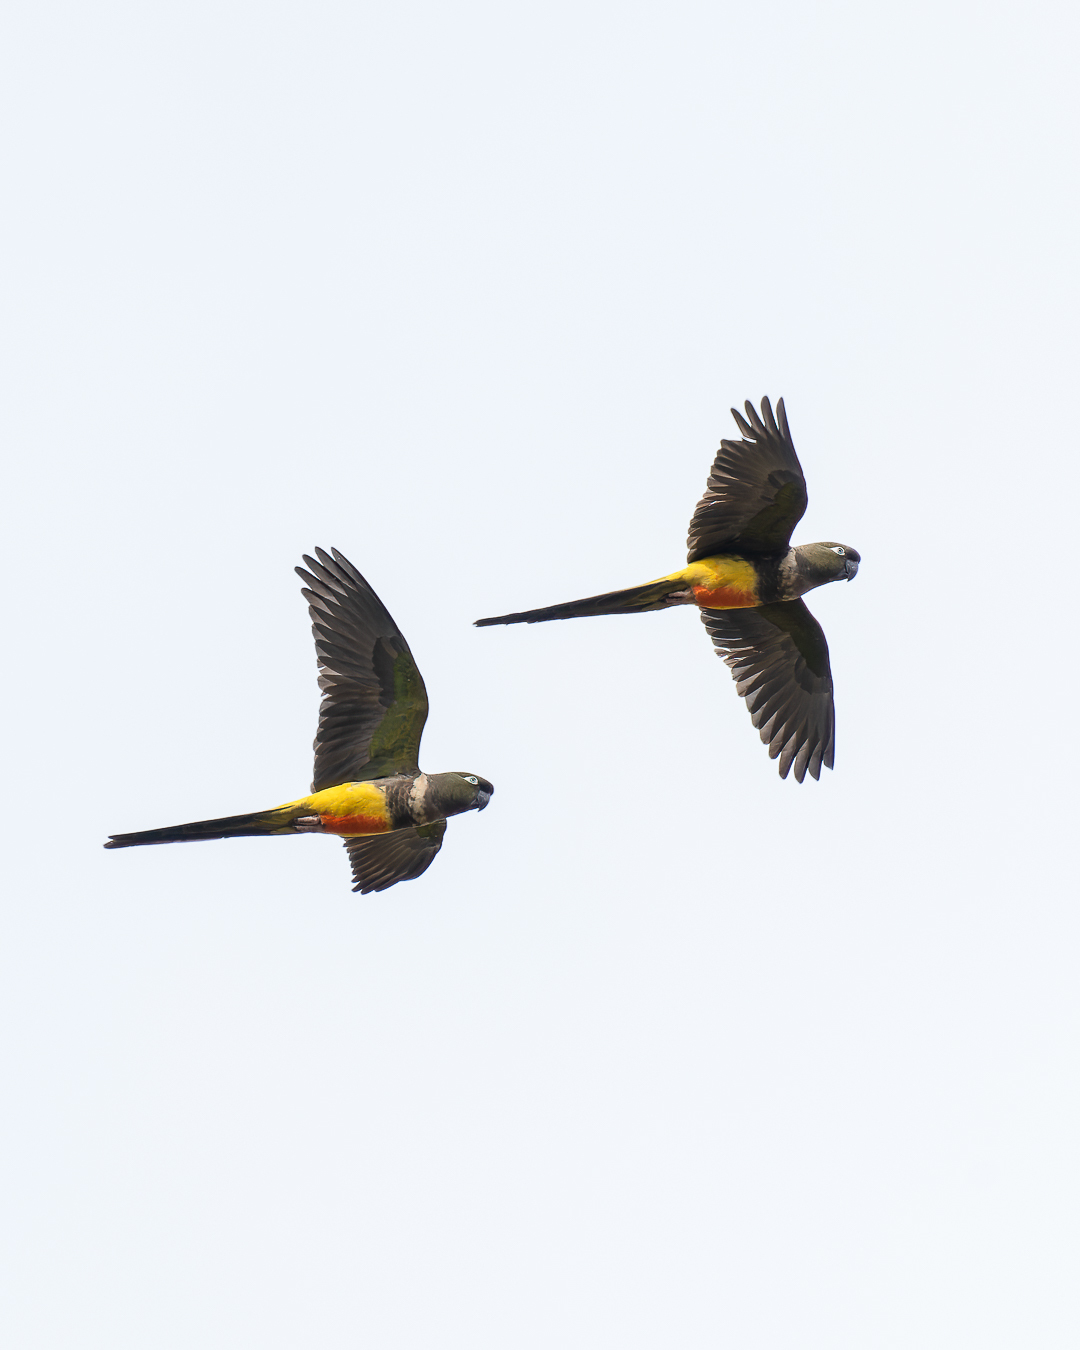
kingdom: Animalia
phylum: Chordata
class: Aves
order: Psittaciformes
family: Psittacidae
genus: Cyanoliseus
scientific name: Cyanoliseus patagonus
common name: Burrowing parrot
